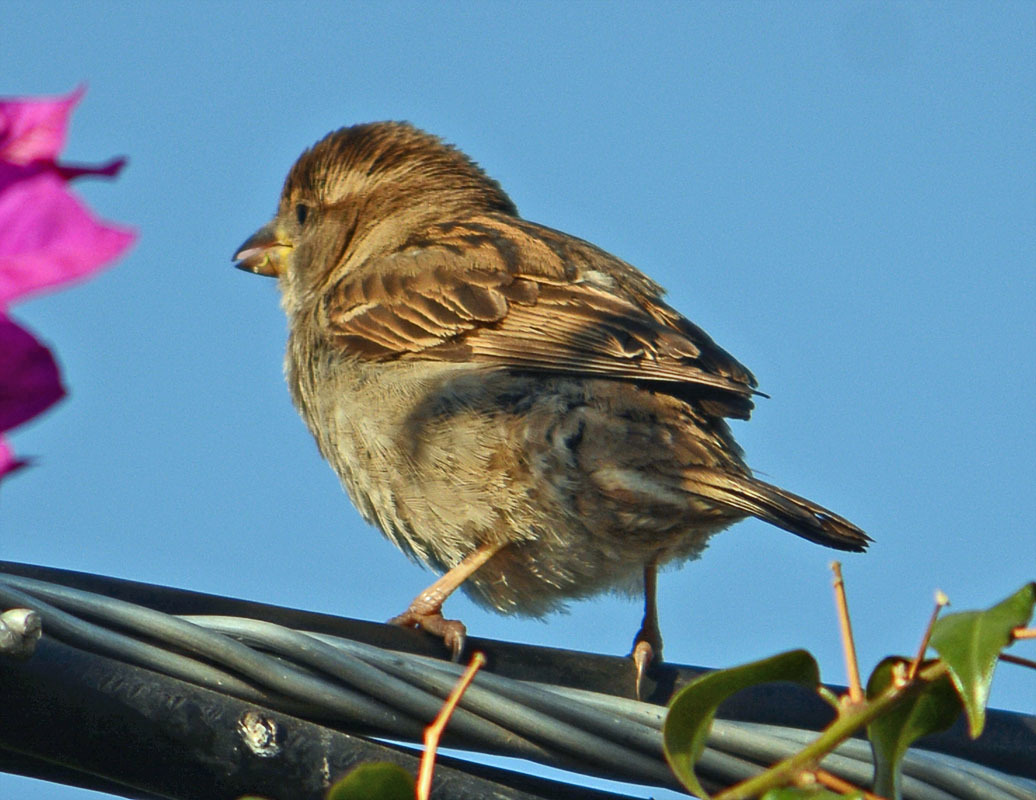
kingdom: Animalia
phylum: Chordata
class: Aves
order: Passeriformes
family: Passeridae
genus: Passer
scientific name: Passer domesticus
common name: House sparrow
